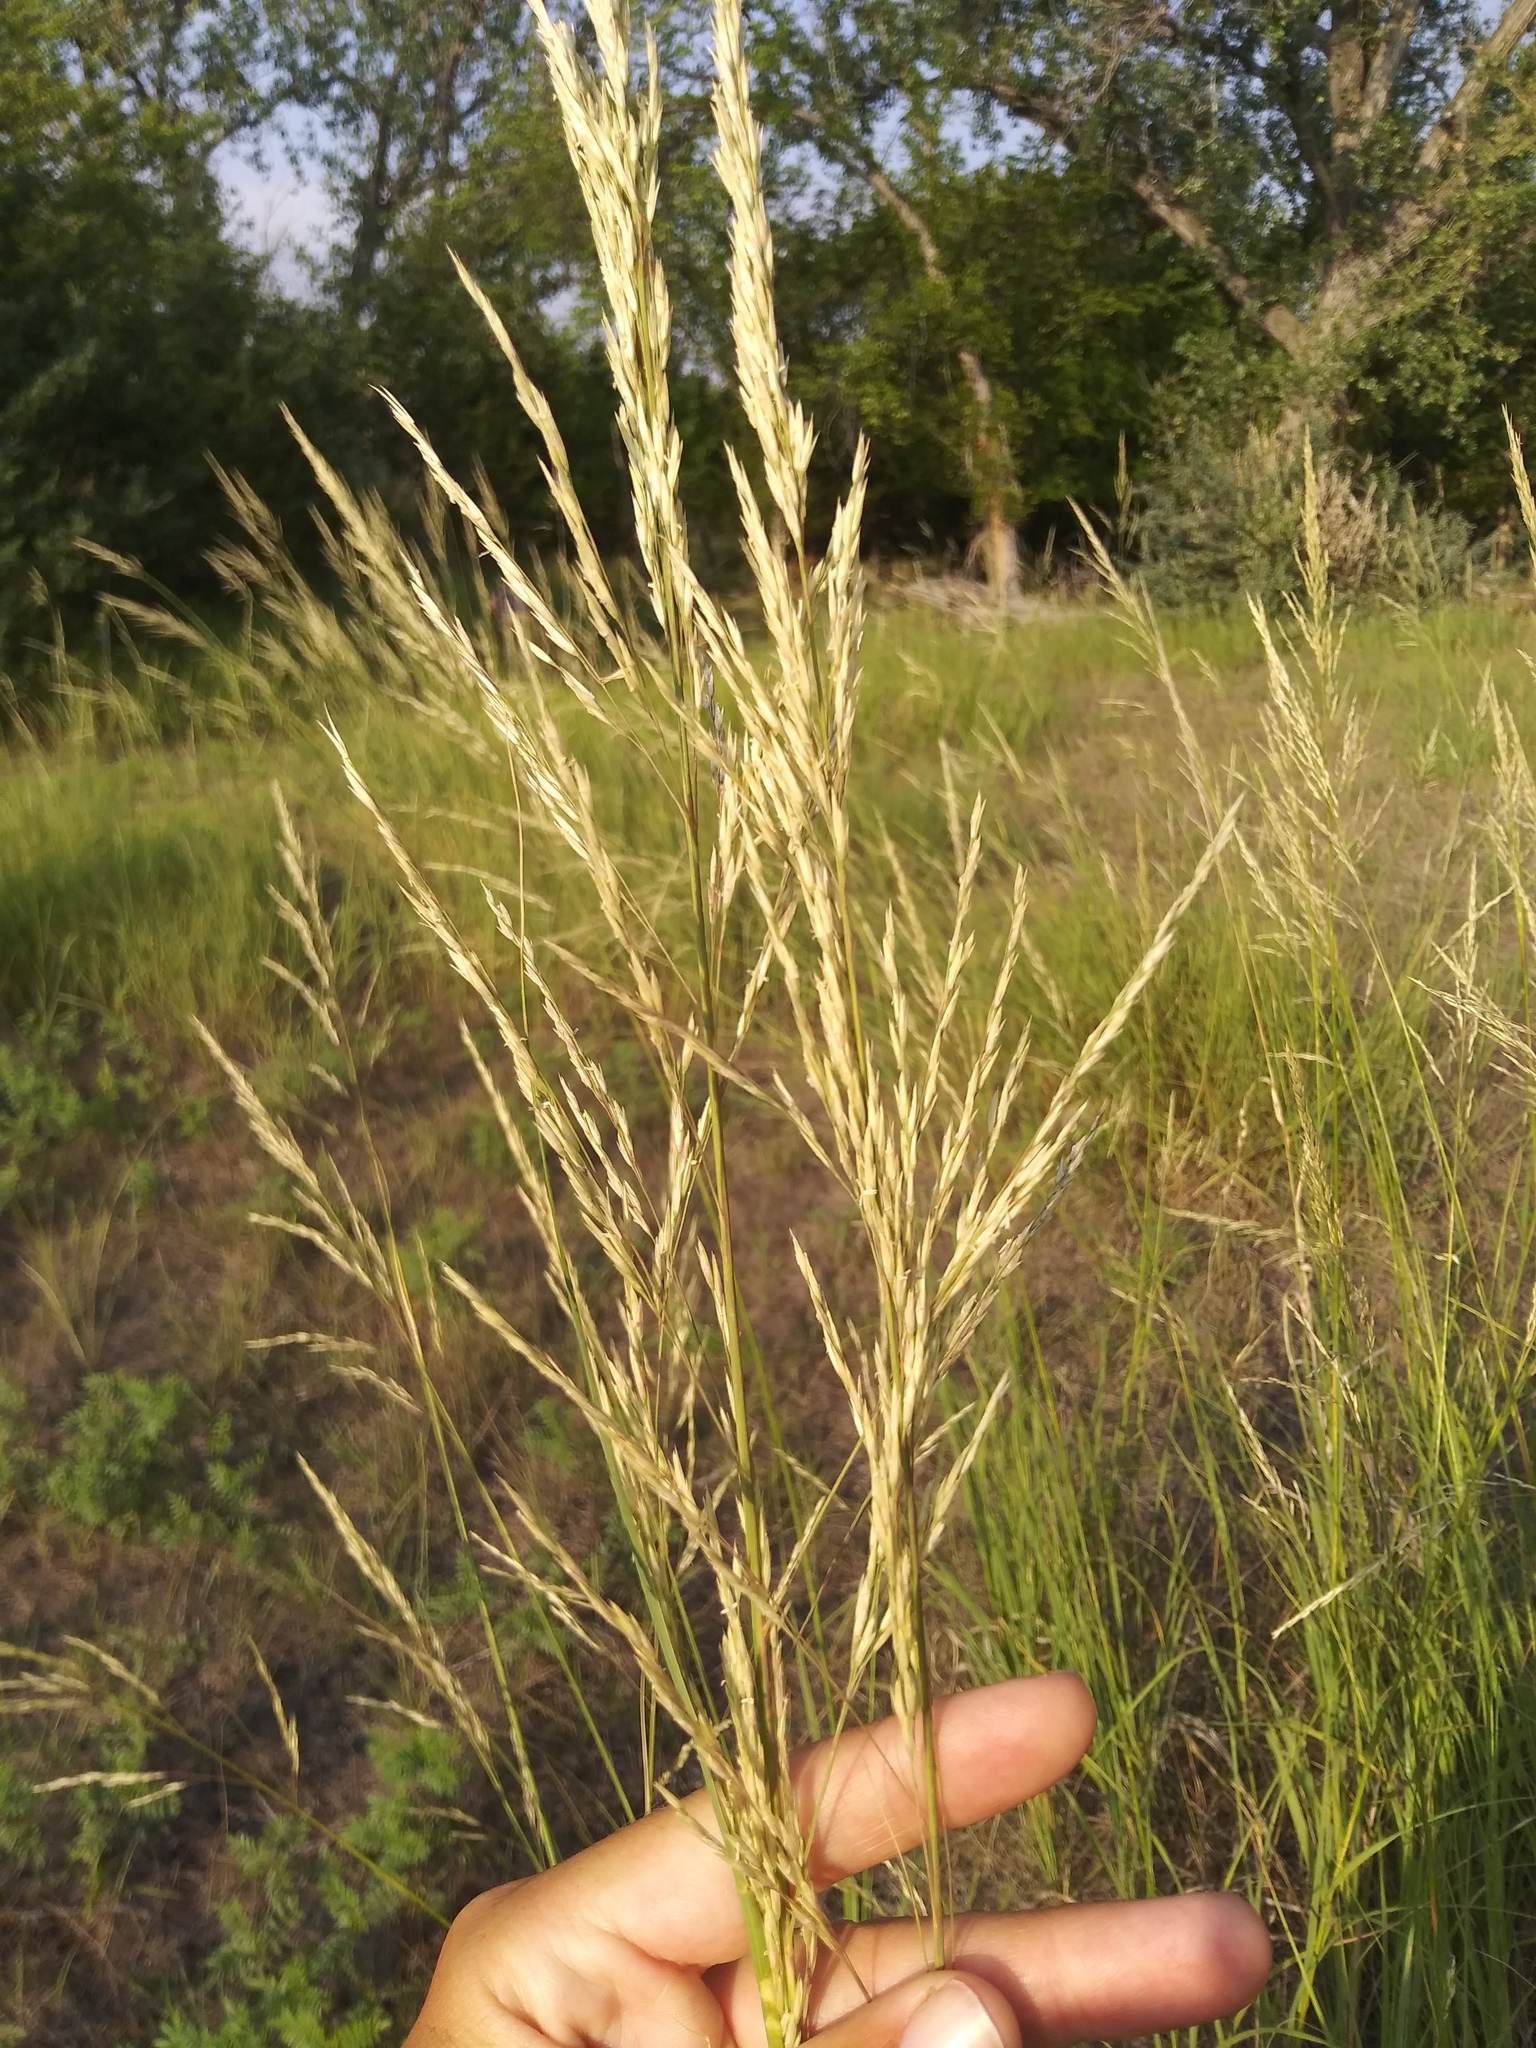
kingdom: Plantae
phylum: Tracheophyta
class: Liliopsida
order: Poales
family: Poaceae
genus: Sporobolus
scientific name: Sporobolus rigidus
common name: Prairie sandreed
